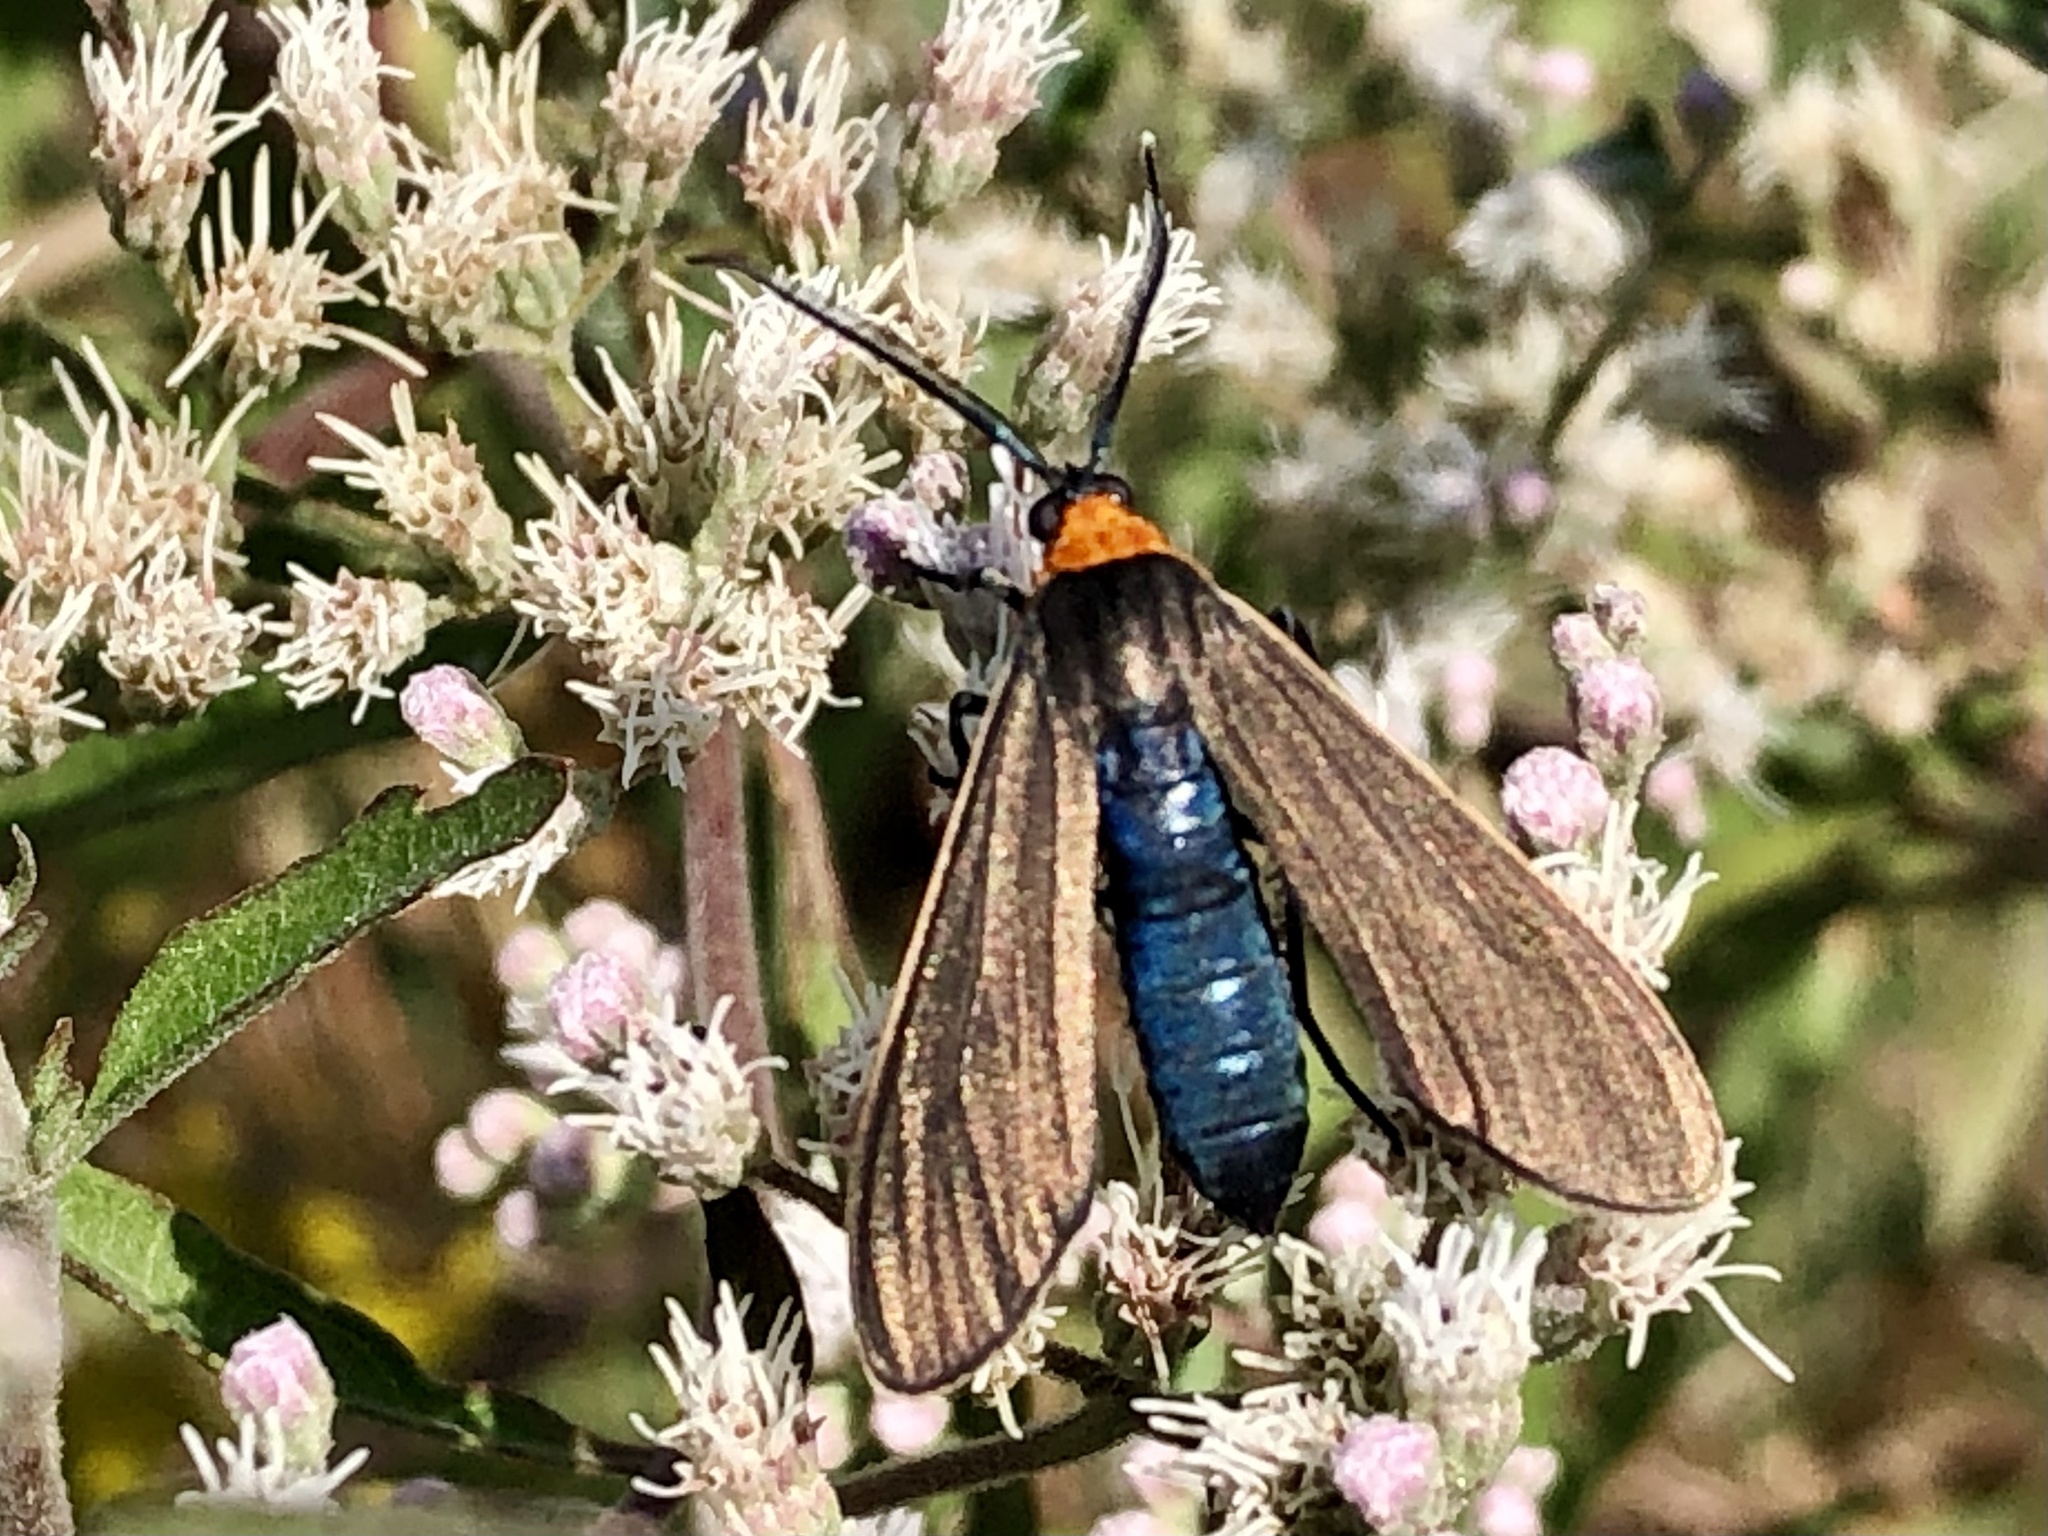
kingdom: Animalia
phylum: Arthropoda
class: Insecta
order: Lepidoptera
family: Erebidae
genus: Cisseps
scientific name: Cisseps fulvicollis
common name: Yellow-collared scape moth
